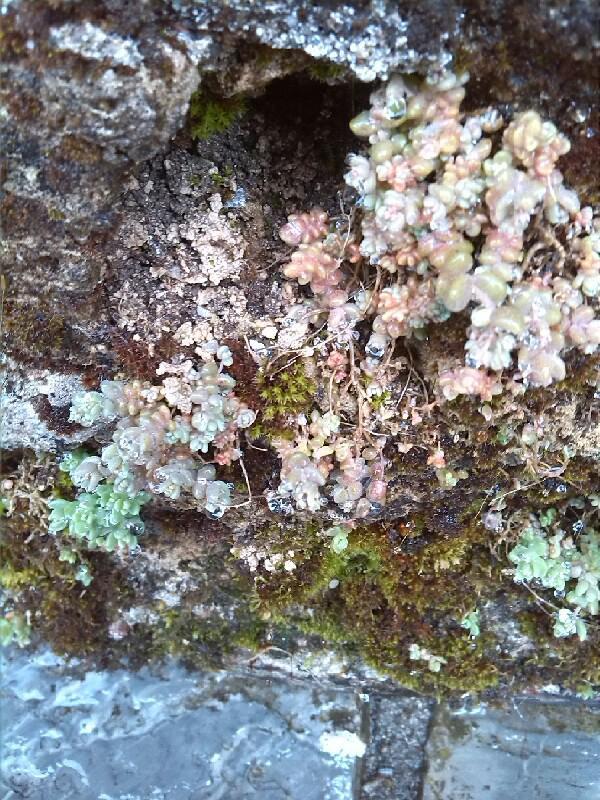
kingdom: Plantae
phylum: Tracheophyta
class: Magnoliopsida
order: Saxifragales
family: Crassulaceae
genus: Sedum
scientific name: Sedum dasyphyllum
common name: Thick-leaf stonecrop
